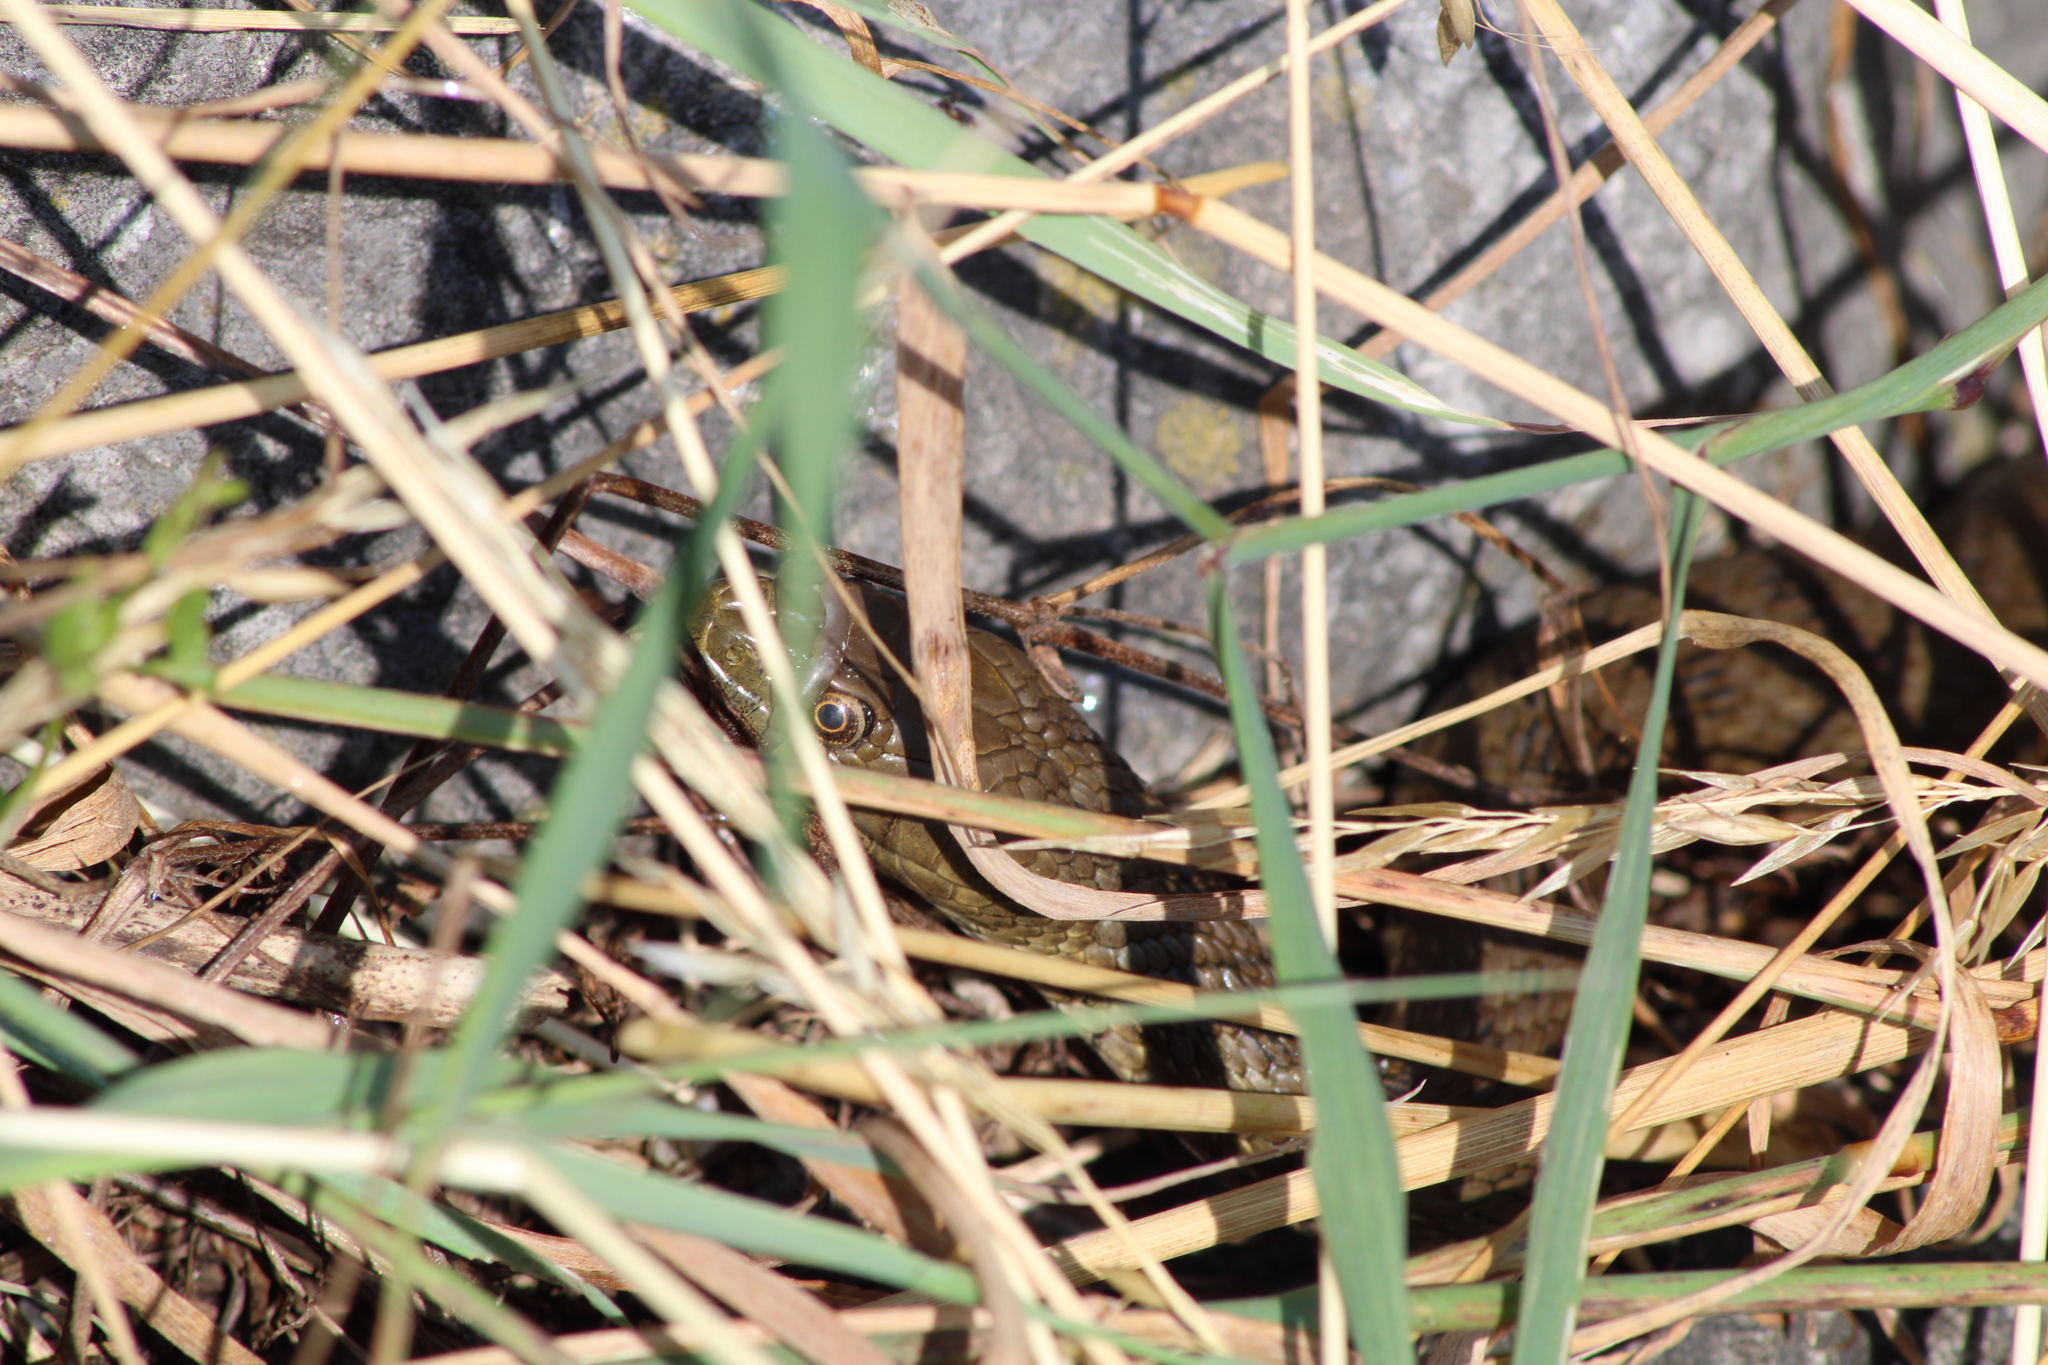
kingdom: Animalia
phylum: Chordata
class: Squamata
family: Colubridae
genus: Natrix
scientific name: Natrix tessellata
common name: Dice snake
